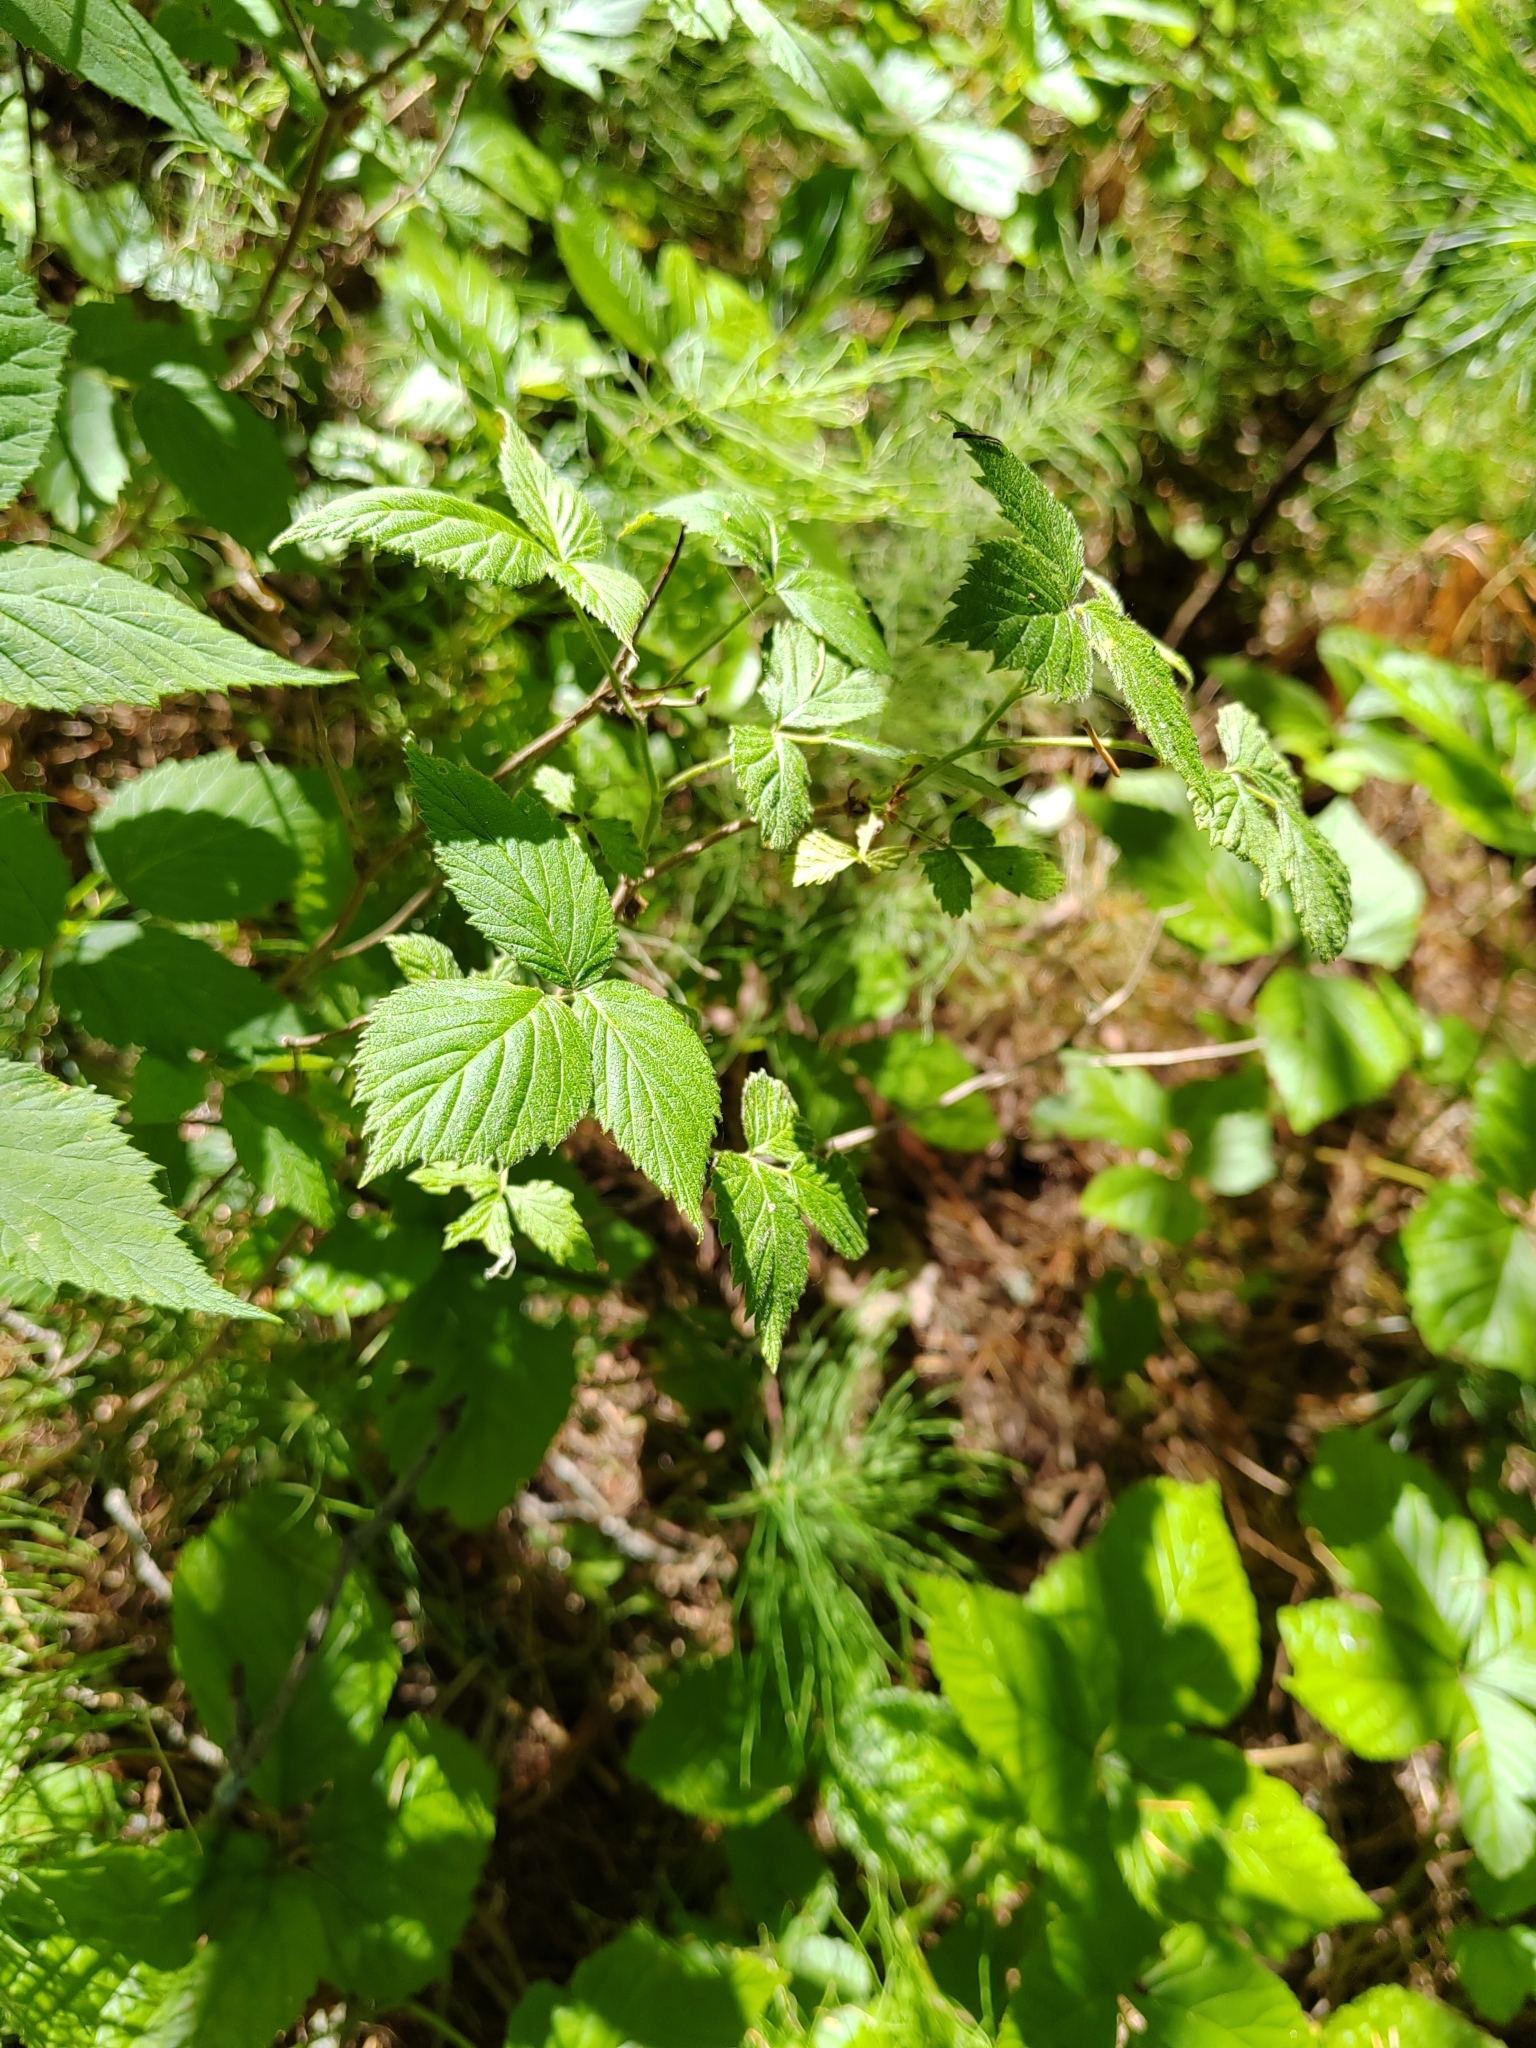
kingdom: Plantae
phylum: Tracheophyta
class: Magnoliopsida
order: Rosales
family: Rosaceae
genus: Rubus
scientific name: Rubus idaeus
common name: Raspberry
